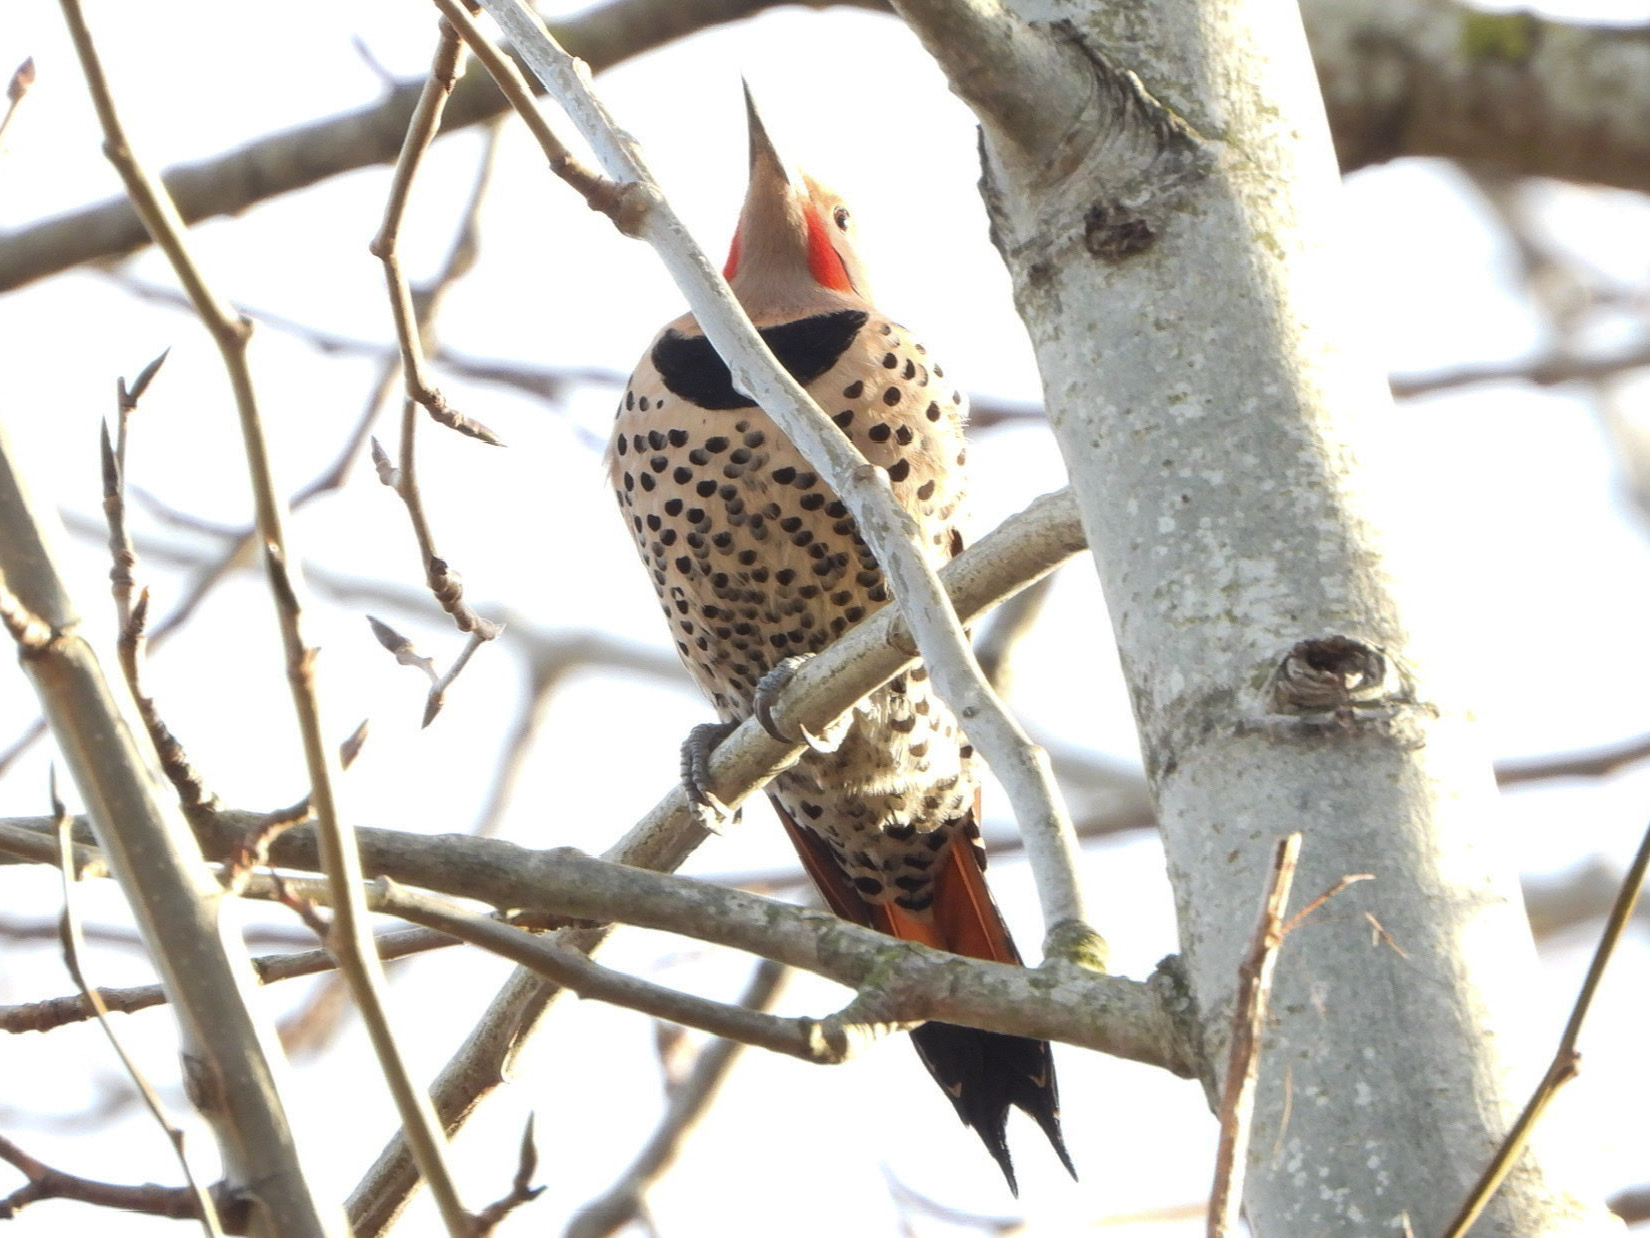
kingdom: Animalia
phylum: Chordata
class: Aves
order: Piciformes
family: Picidae
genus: Colaptes
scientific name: Colaptes
